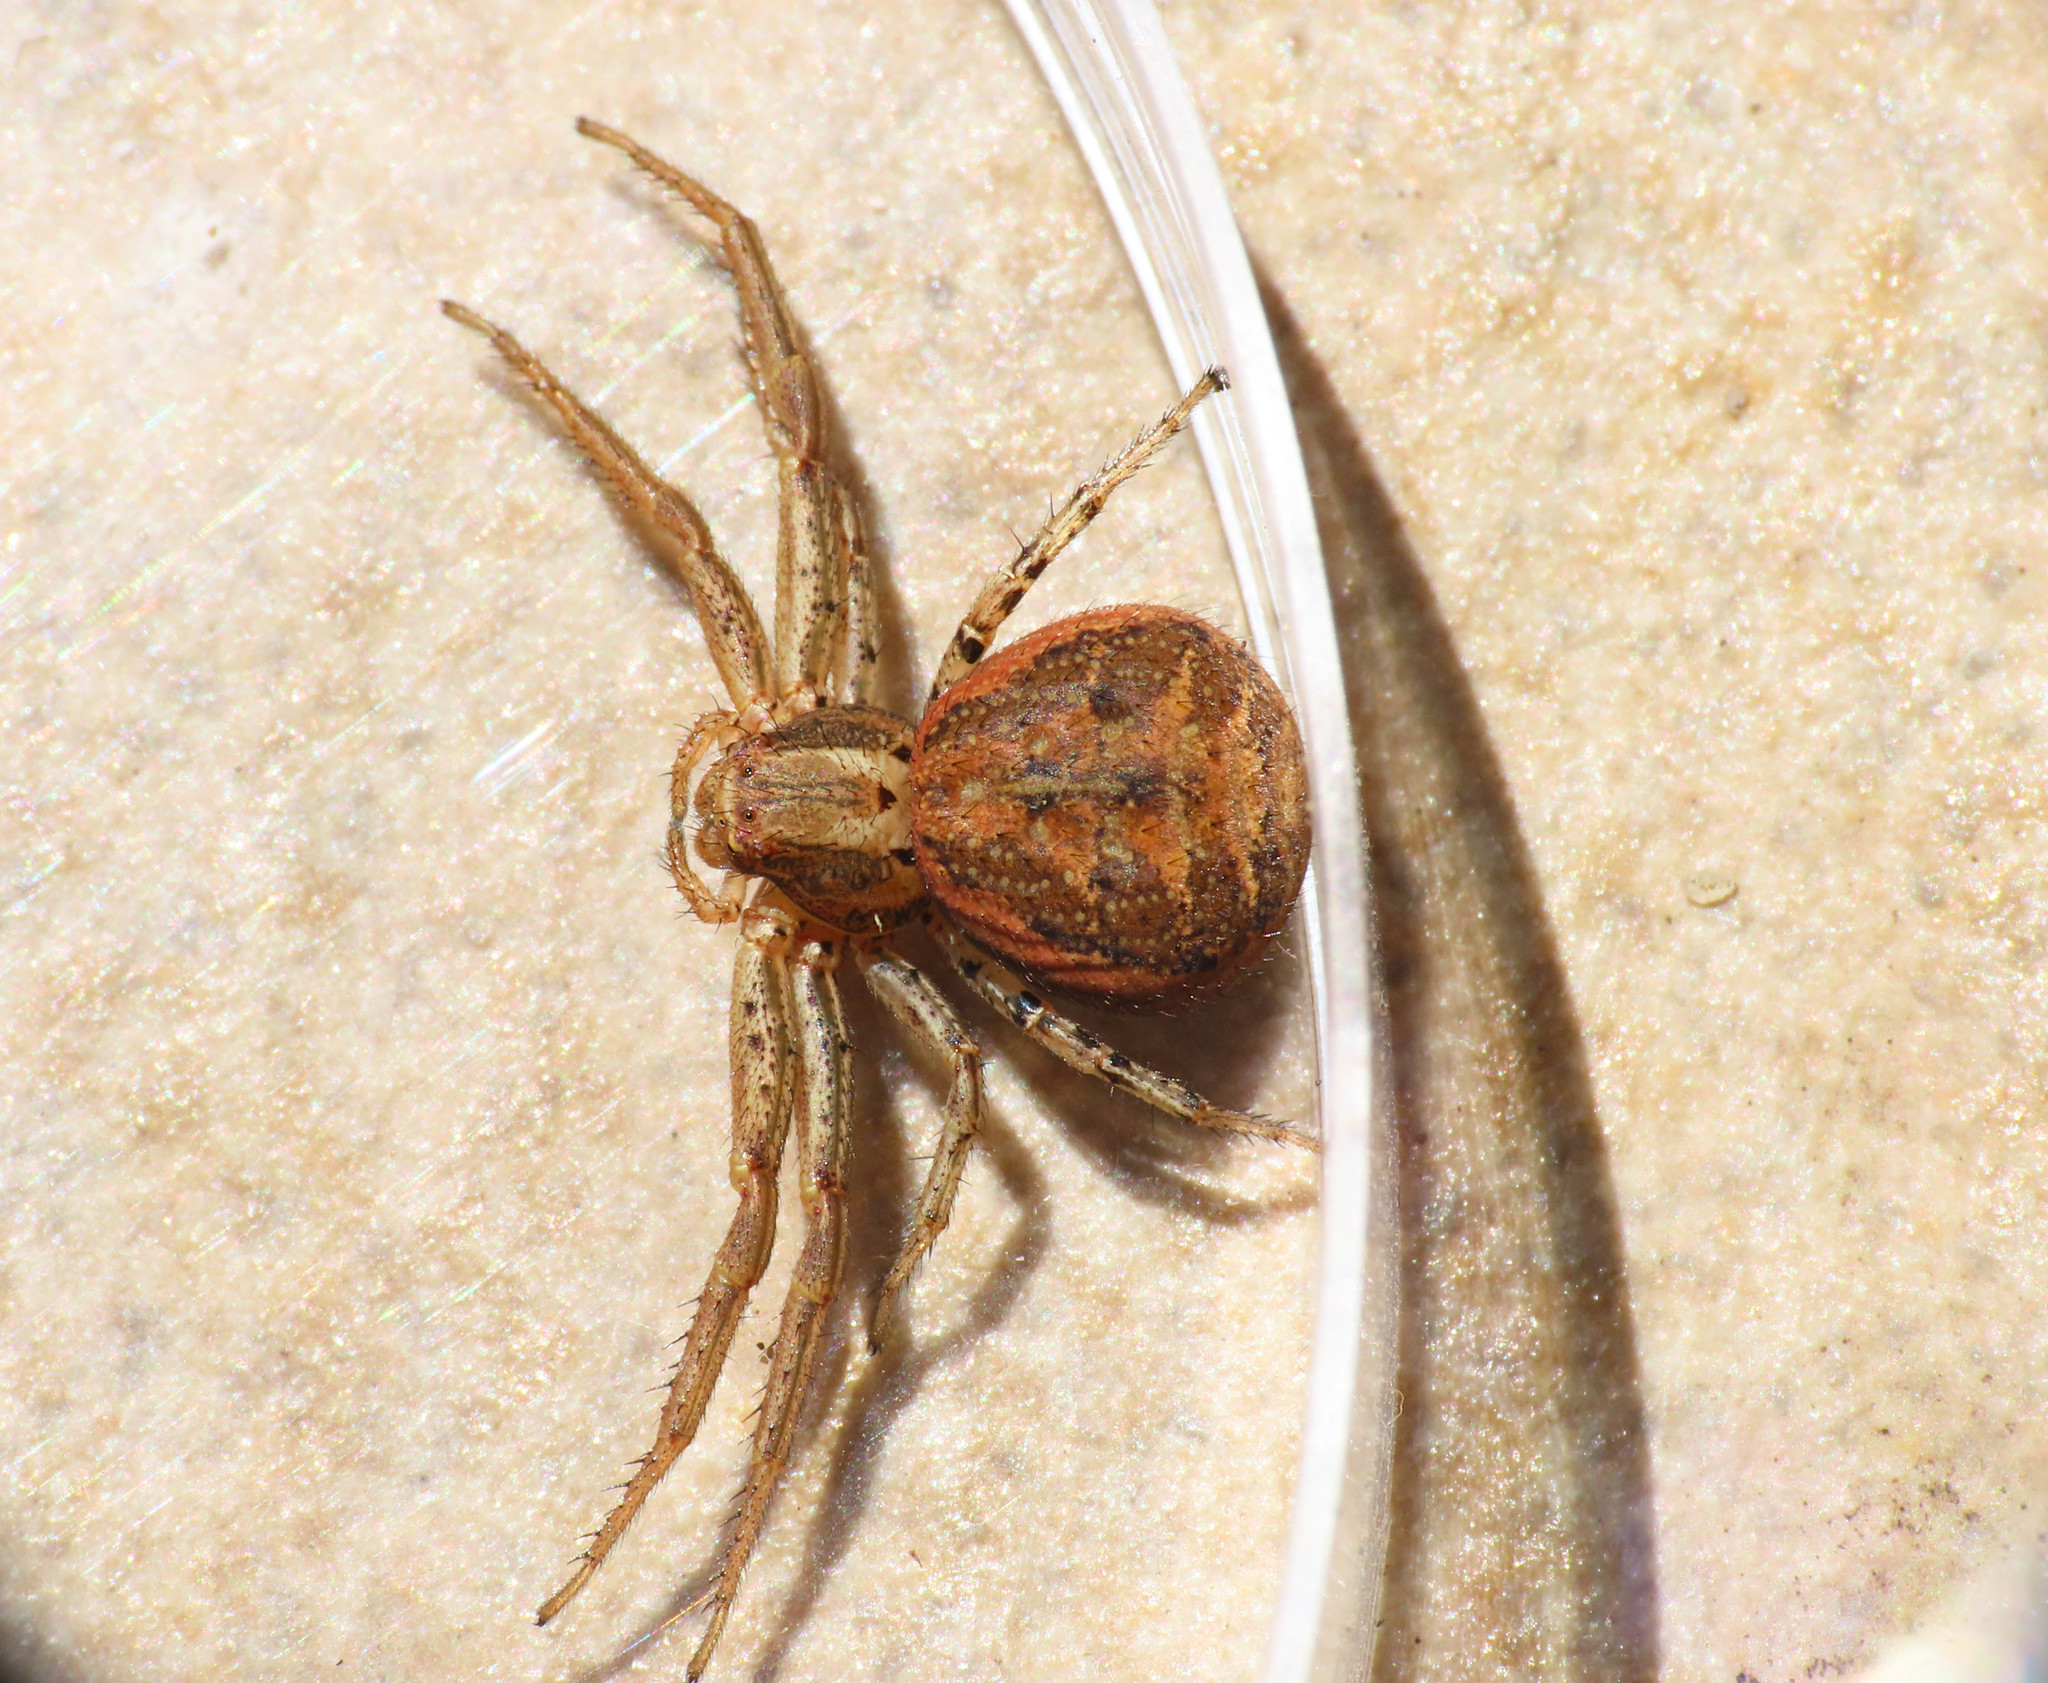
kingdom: Animalia
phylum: Arthropoda
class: Arachnida
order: Araneae
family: Thomisidae
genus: Xysticus
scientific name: Xysticus kochi
